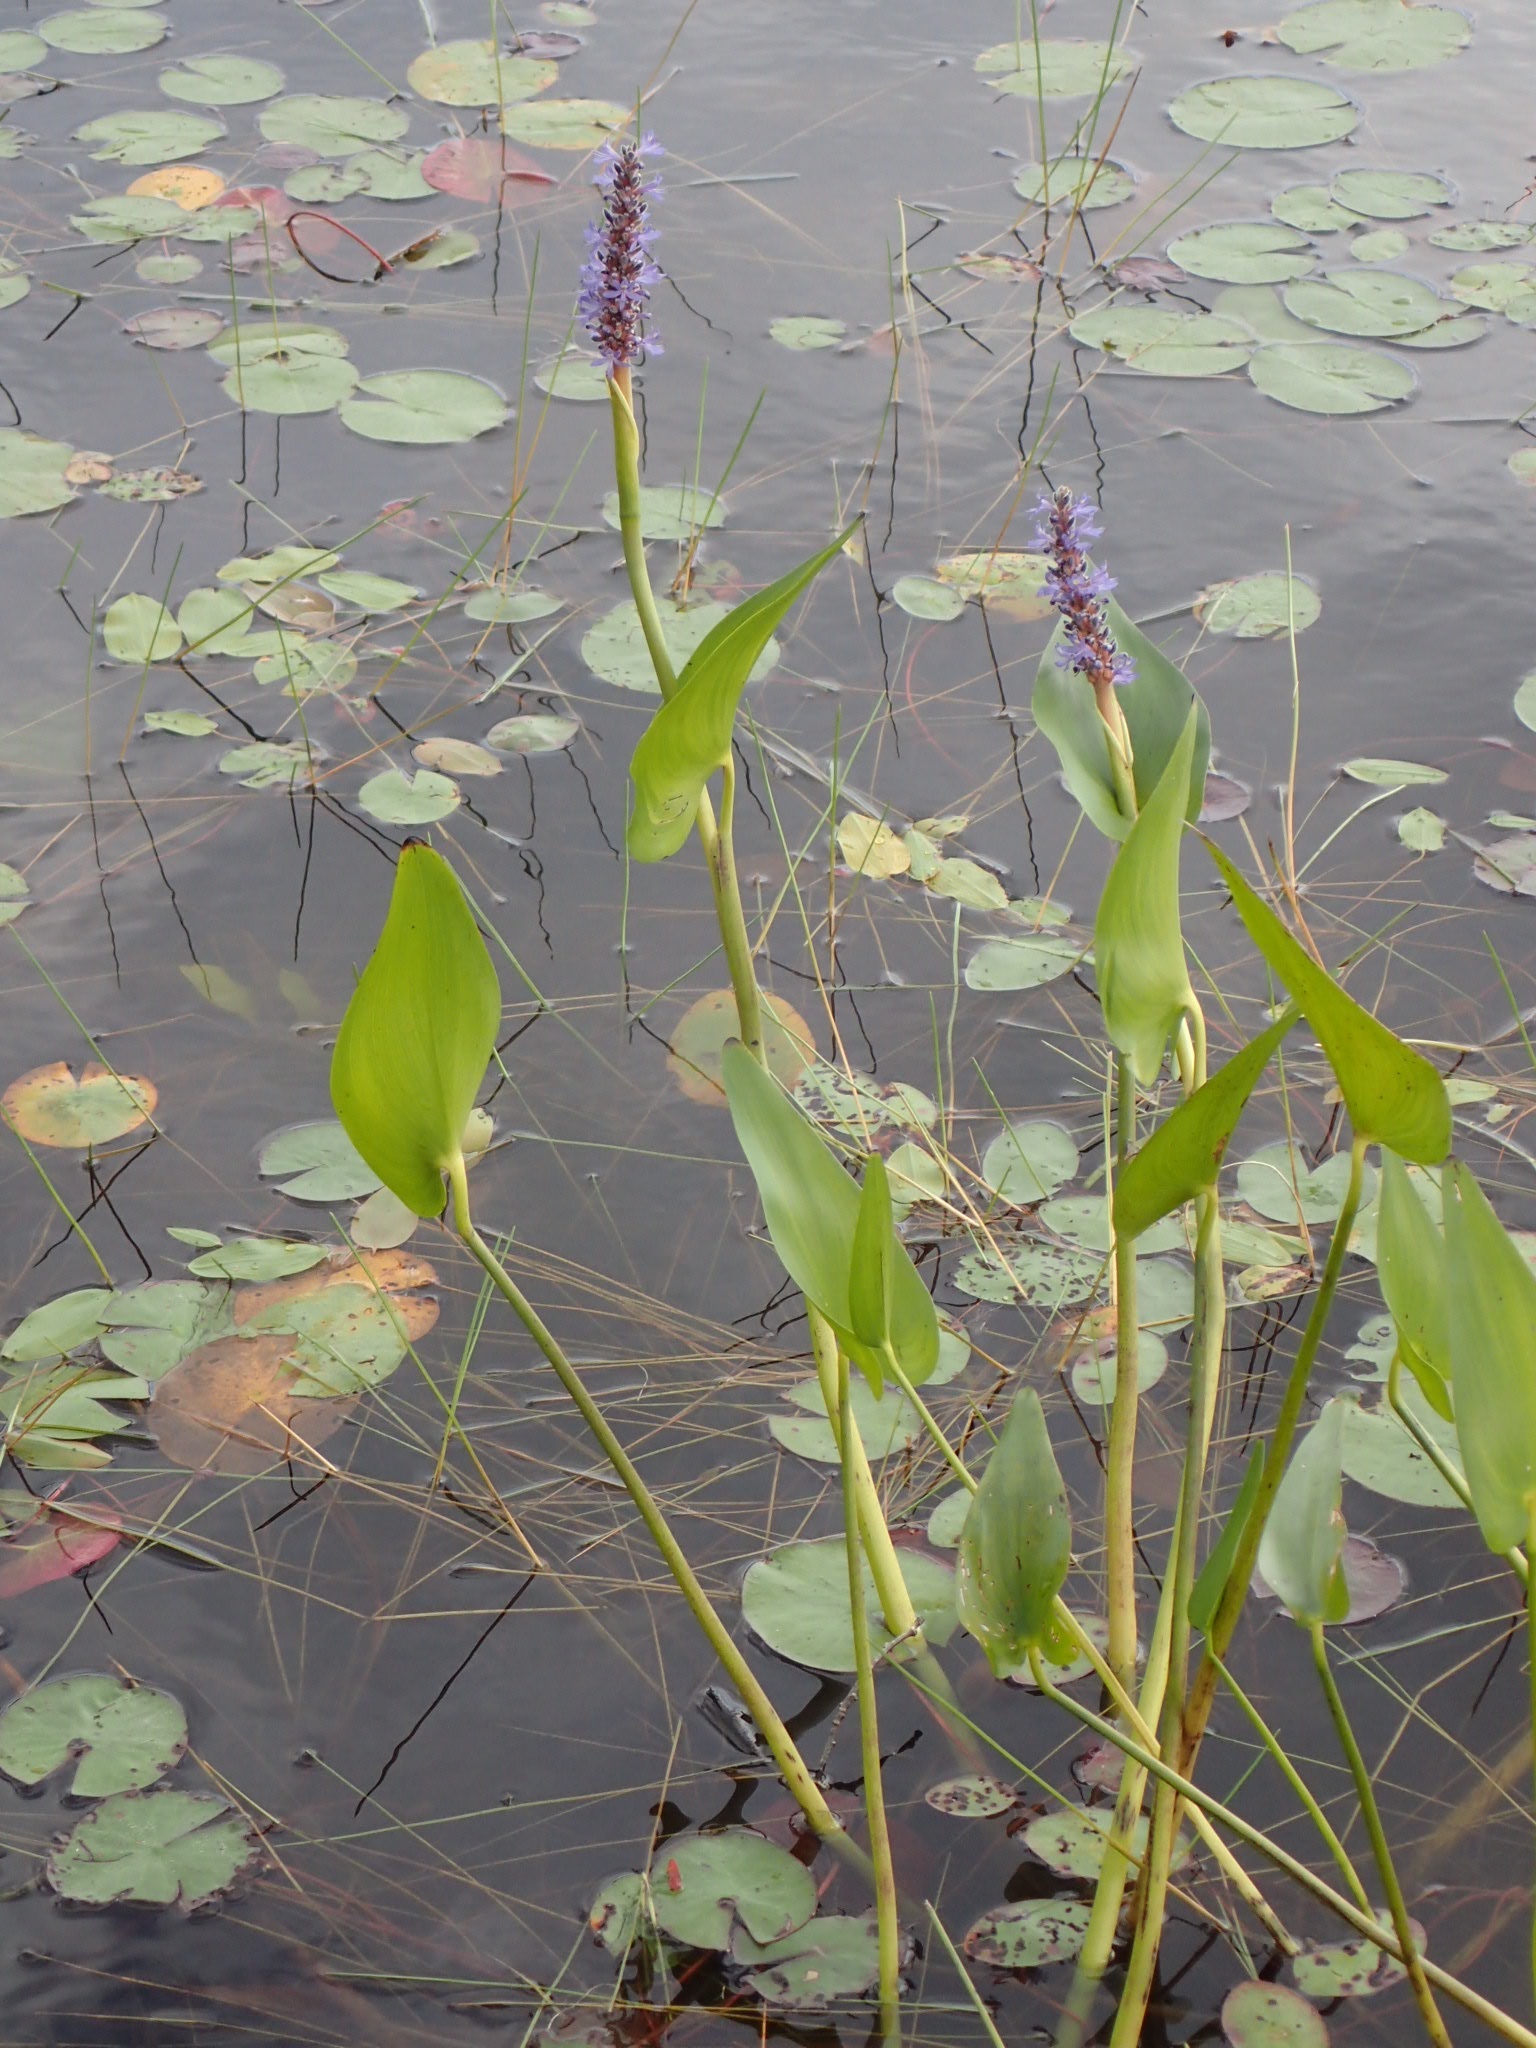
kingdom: Plantae
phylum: Tracheophyta
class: Liliopsida
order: Commelinales
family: Pontederiaceae
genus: Pontederia
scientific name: Pontederia cordata
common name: Pickerelweed
